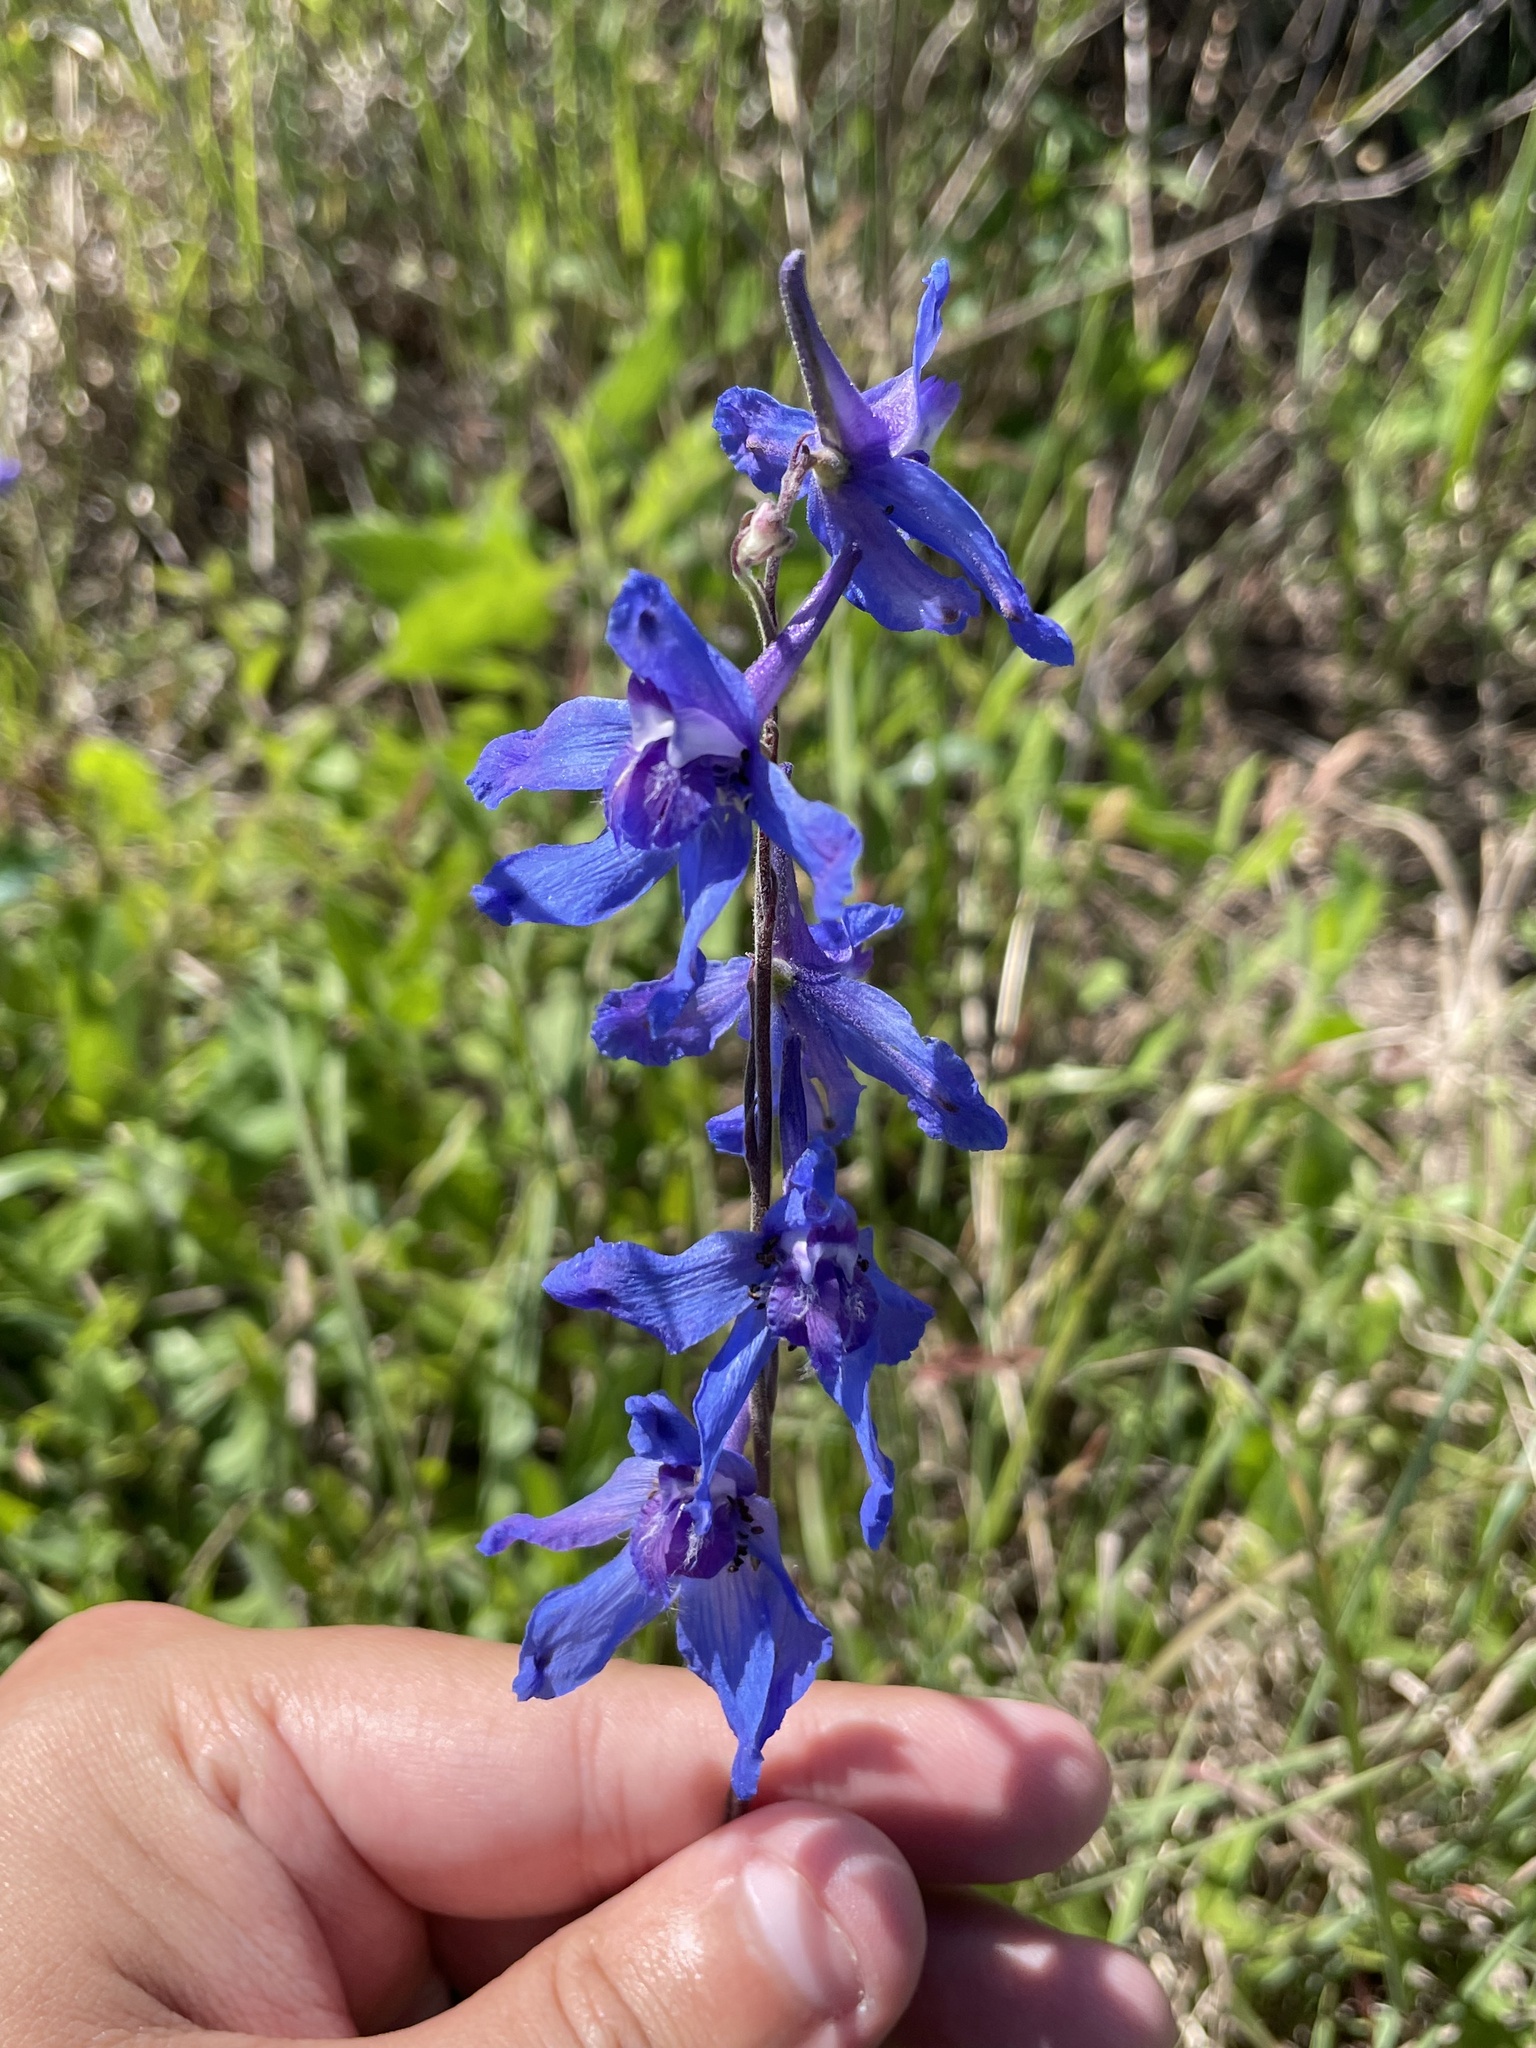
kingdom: Plantae
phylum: Tracheophyta
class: Magnoliopsida
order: Ranunculales
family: Ranunculaceae
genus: Delphinium
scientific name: Delphinium carolinianum
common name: Carolina larkspur
